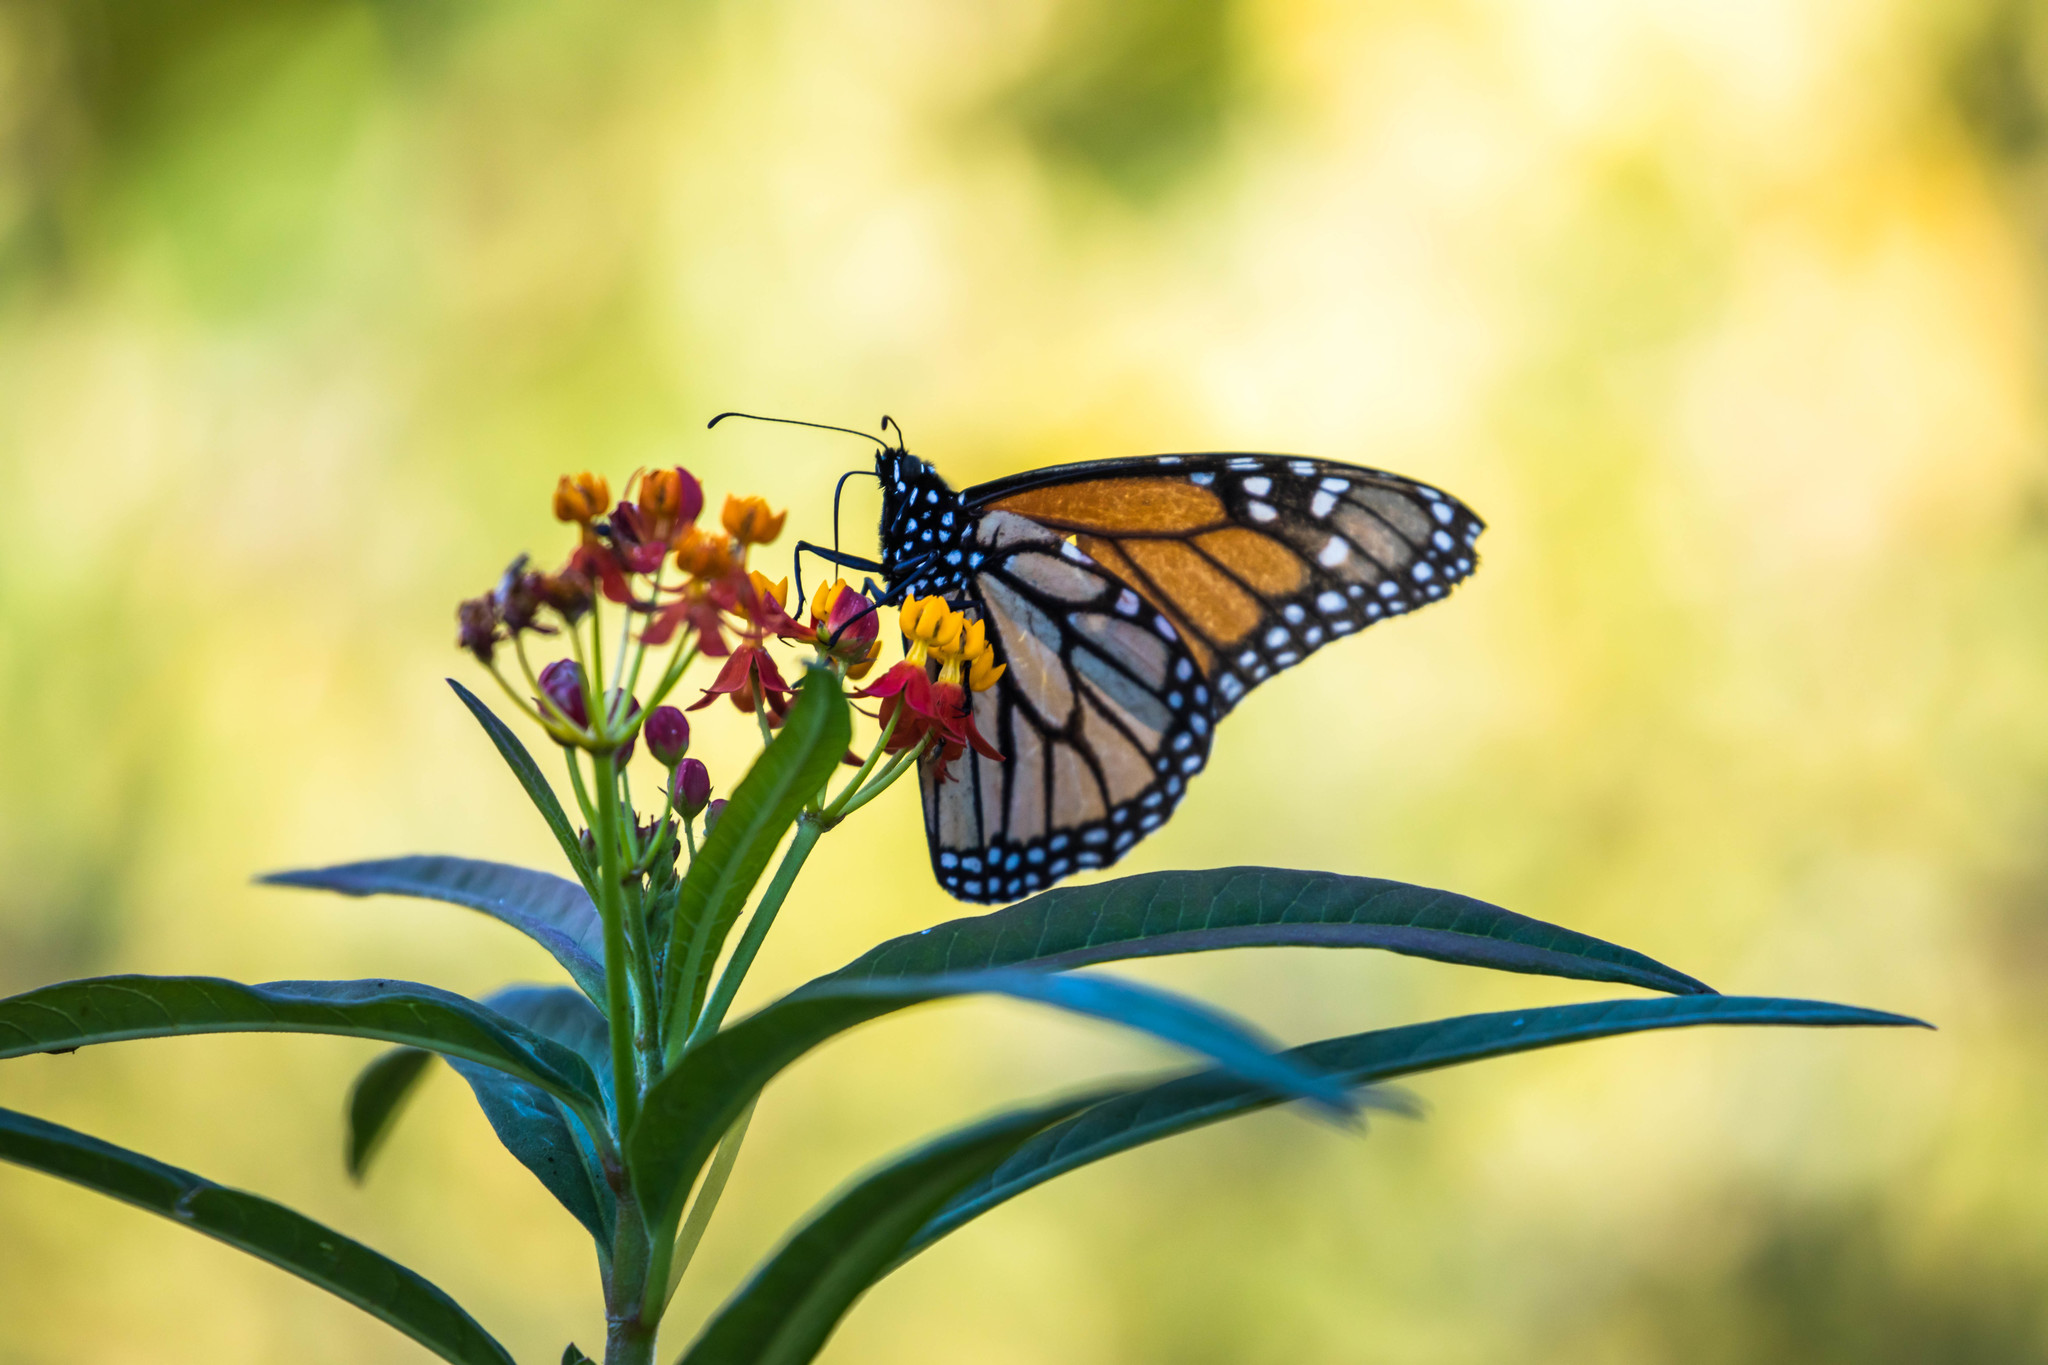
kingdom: Animalia
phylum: Arthropoda
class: Insecta
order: Lepidoptera
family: Nymphalidae
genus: Danaus
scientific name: Danaus plexippus
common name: Monarch
